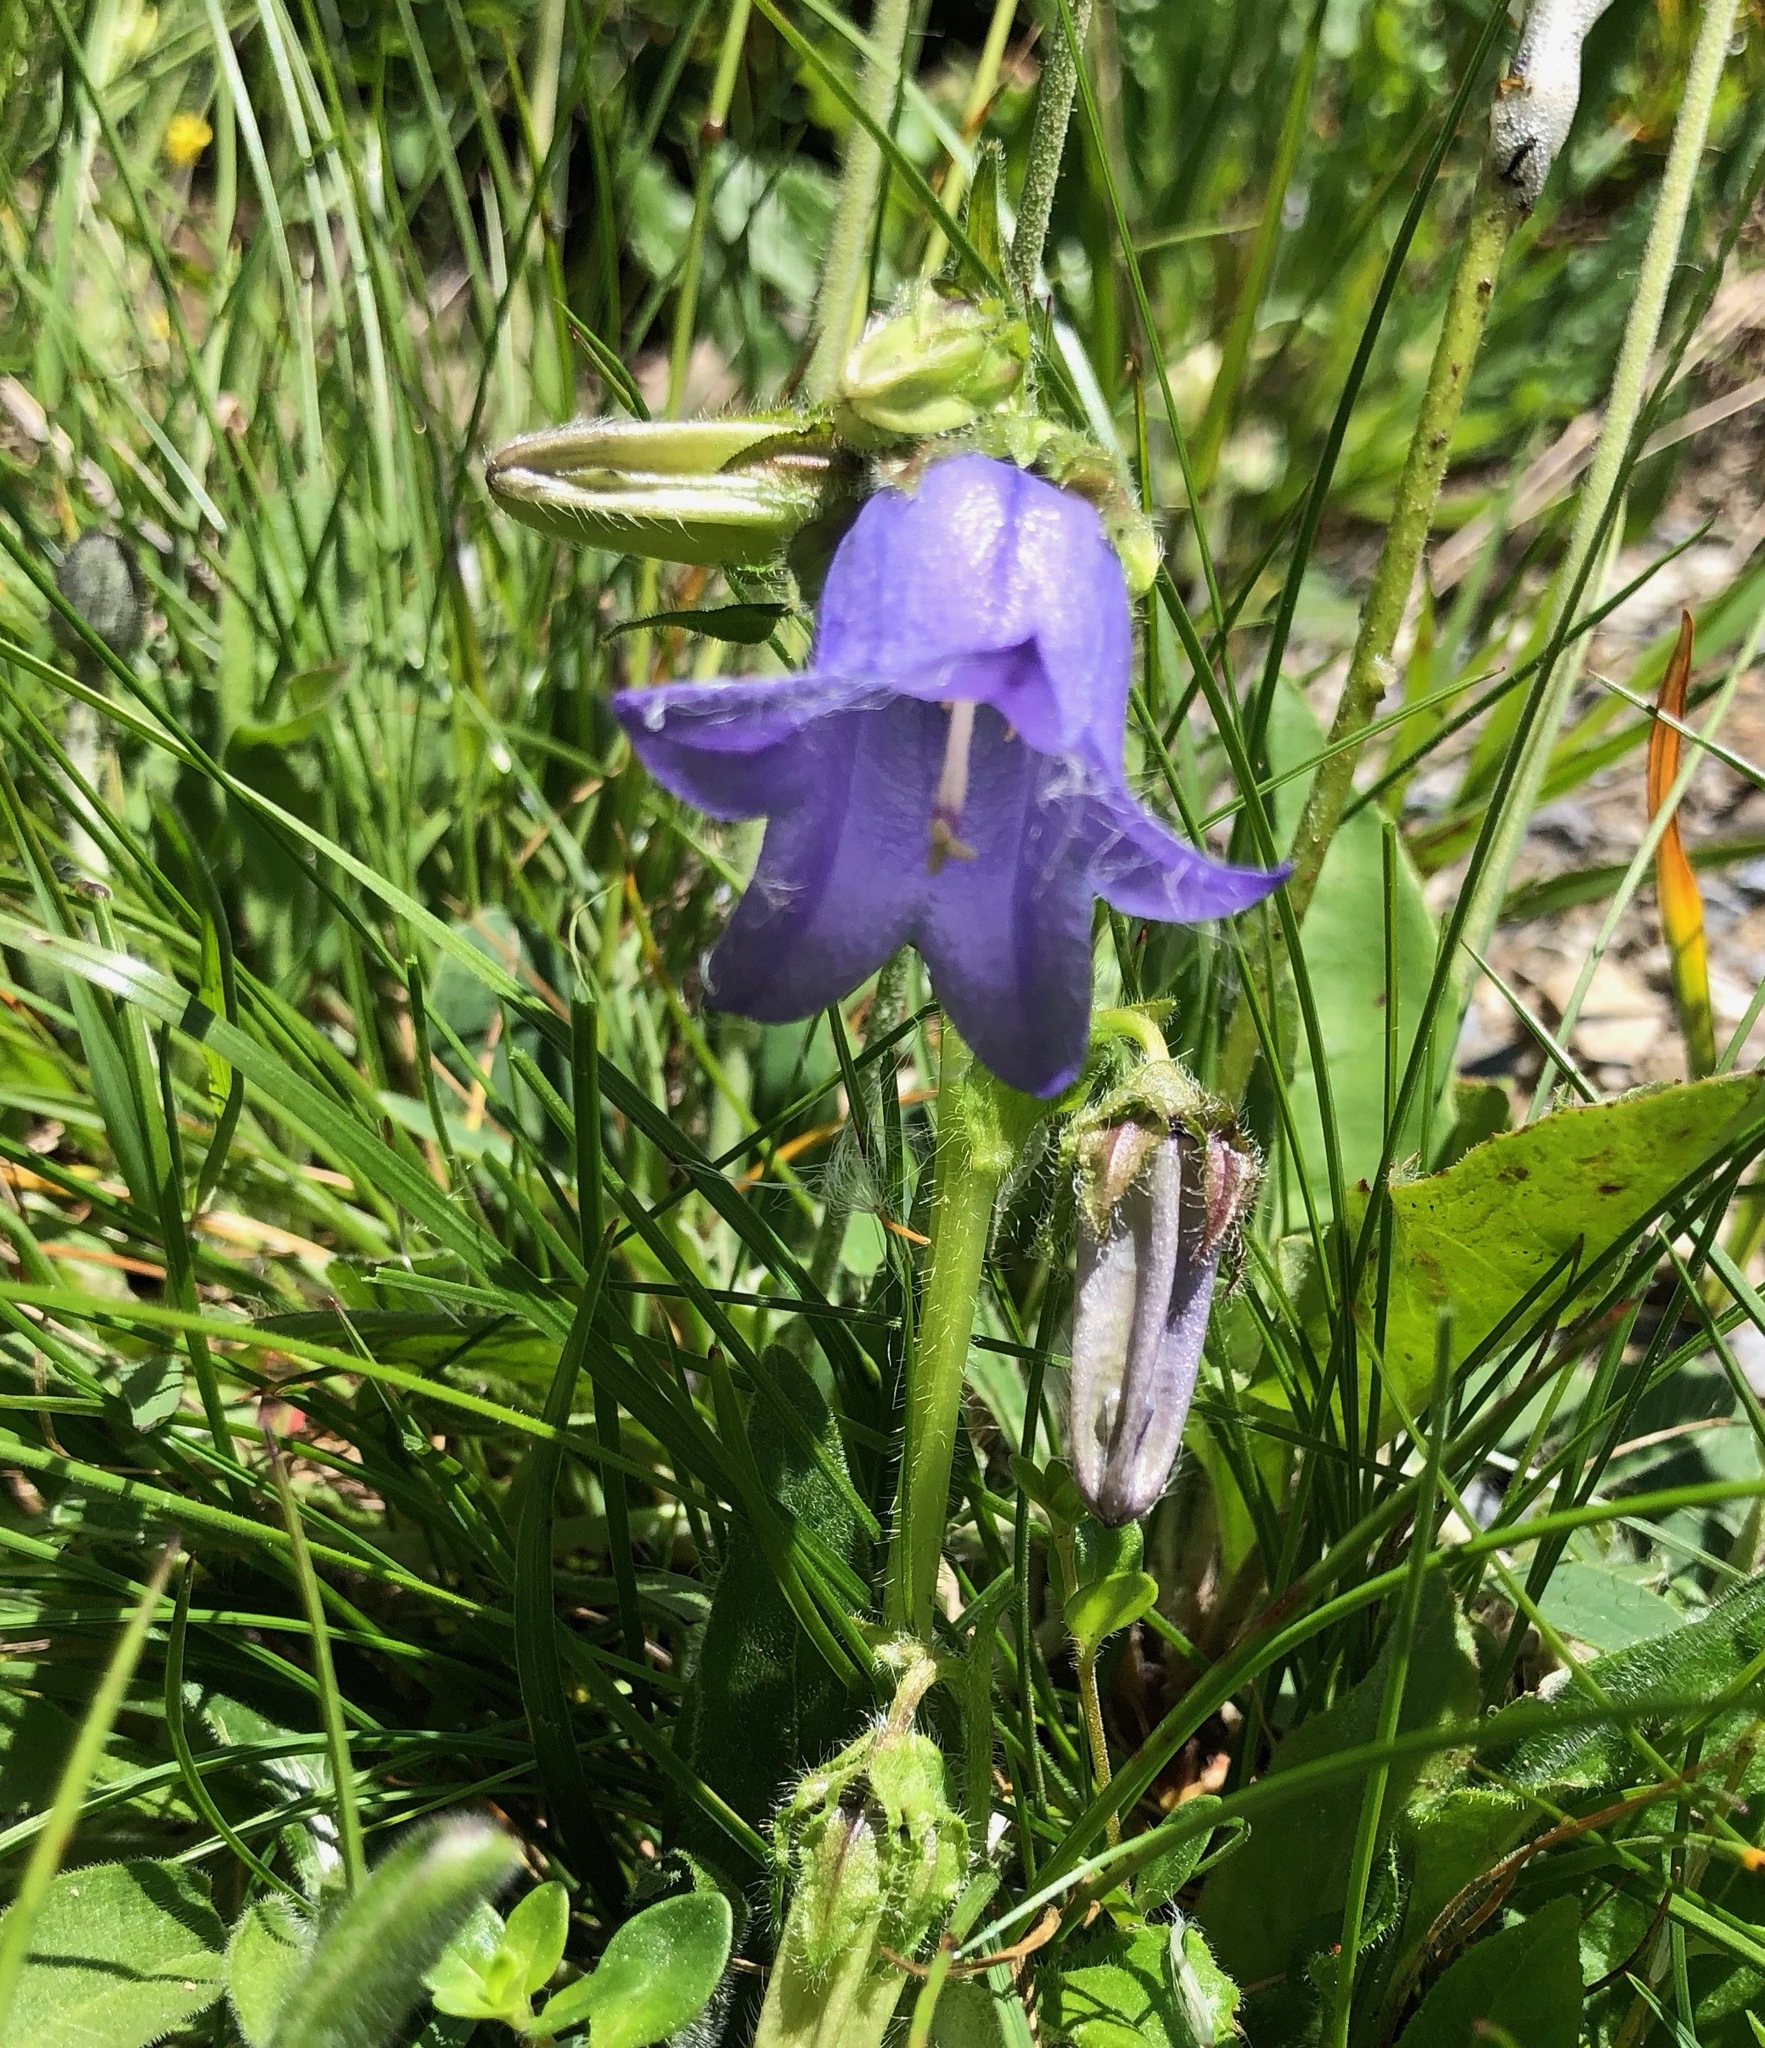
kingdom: Plantae
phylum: Tracheophyta
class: Magnoliopsida
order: Asterales
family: Campanulaceae
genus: Campanula
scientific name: Campanula barbata
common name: Bearded bellflower
